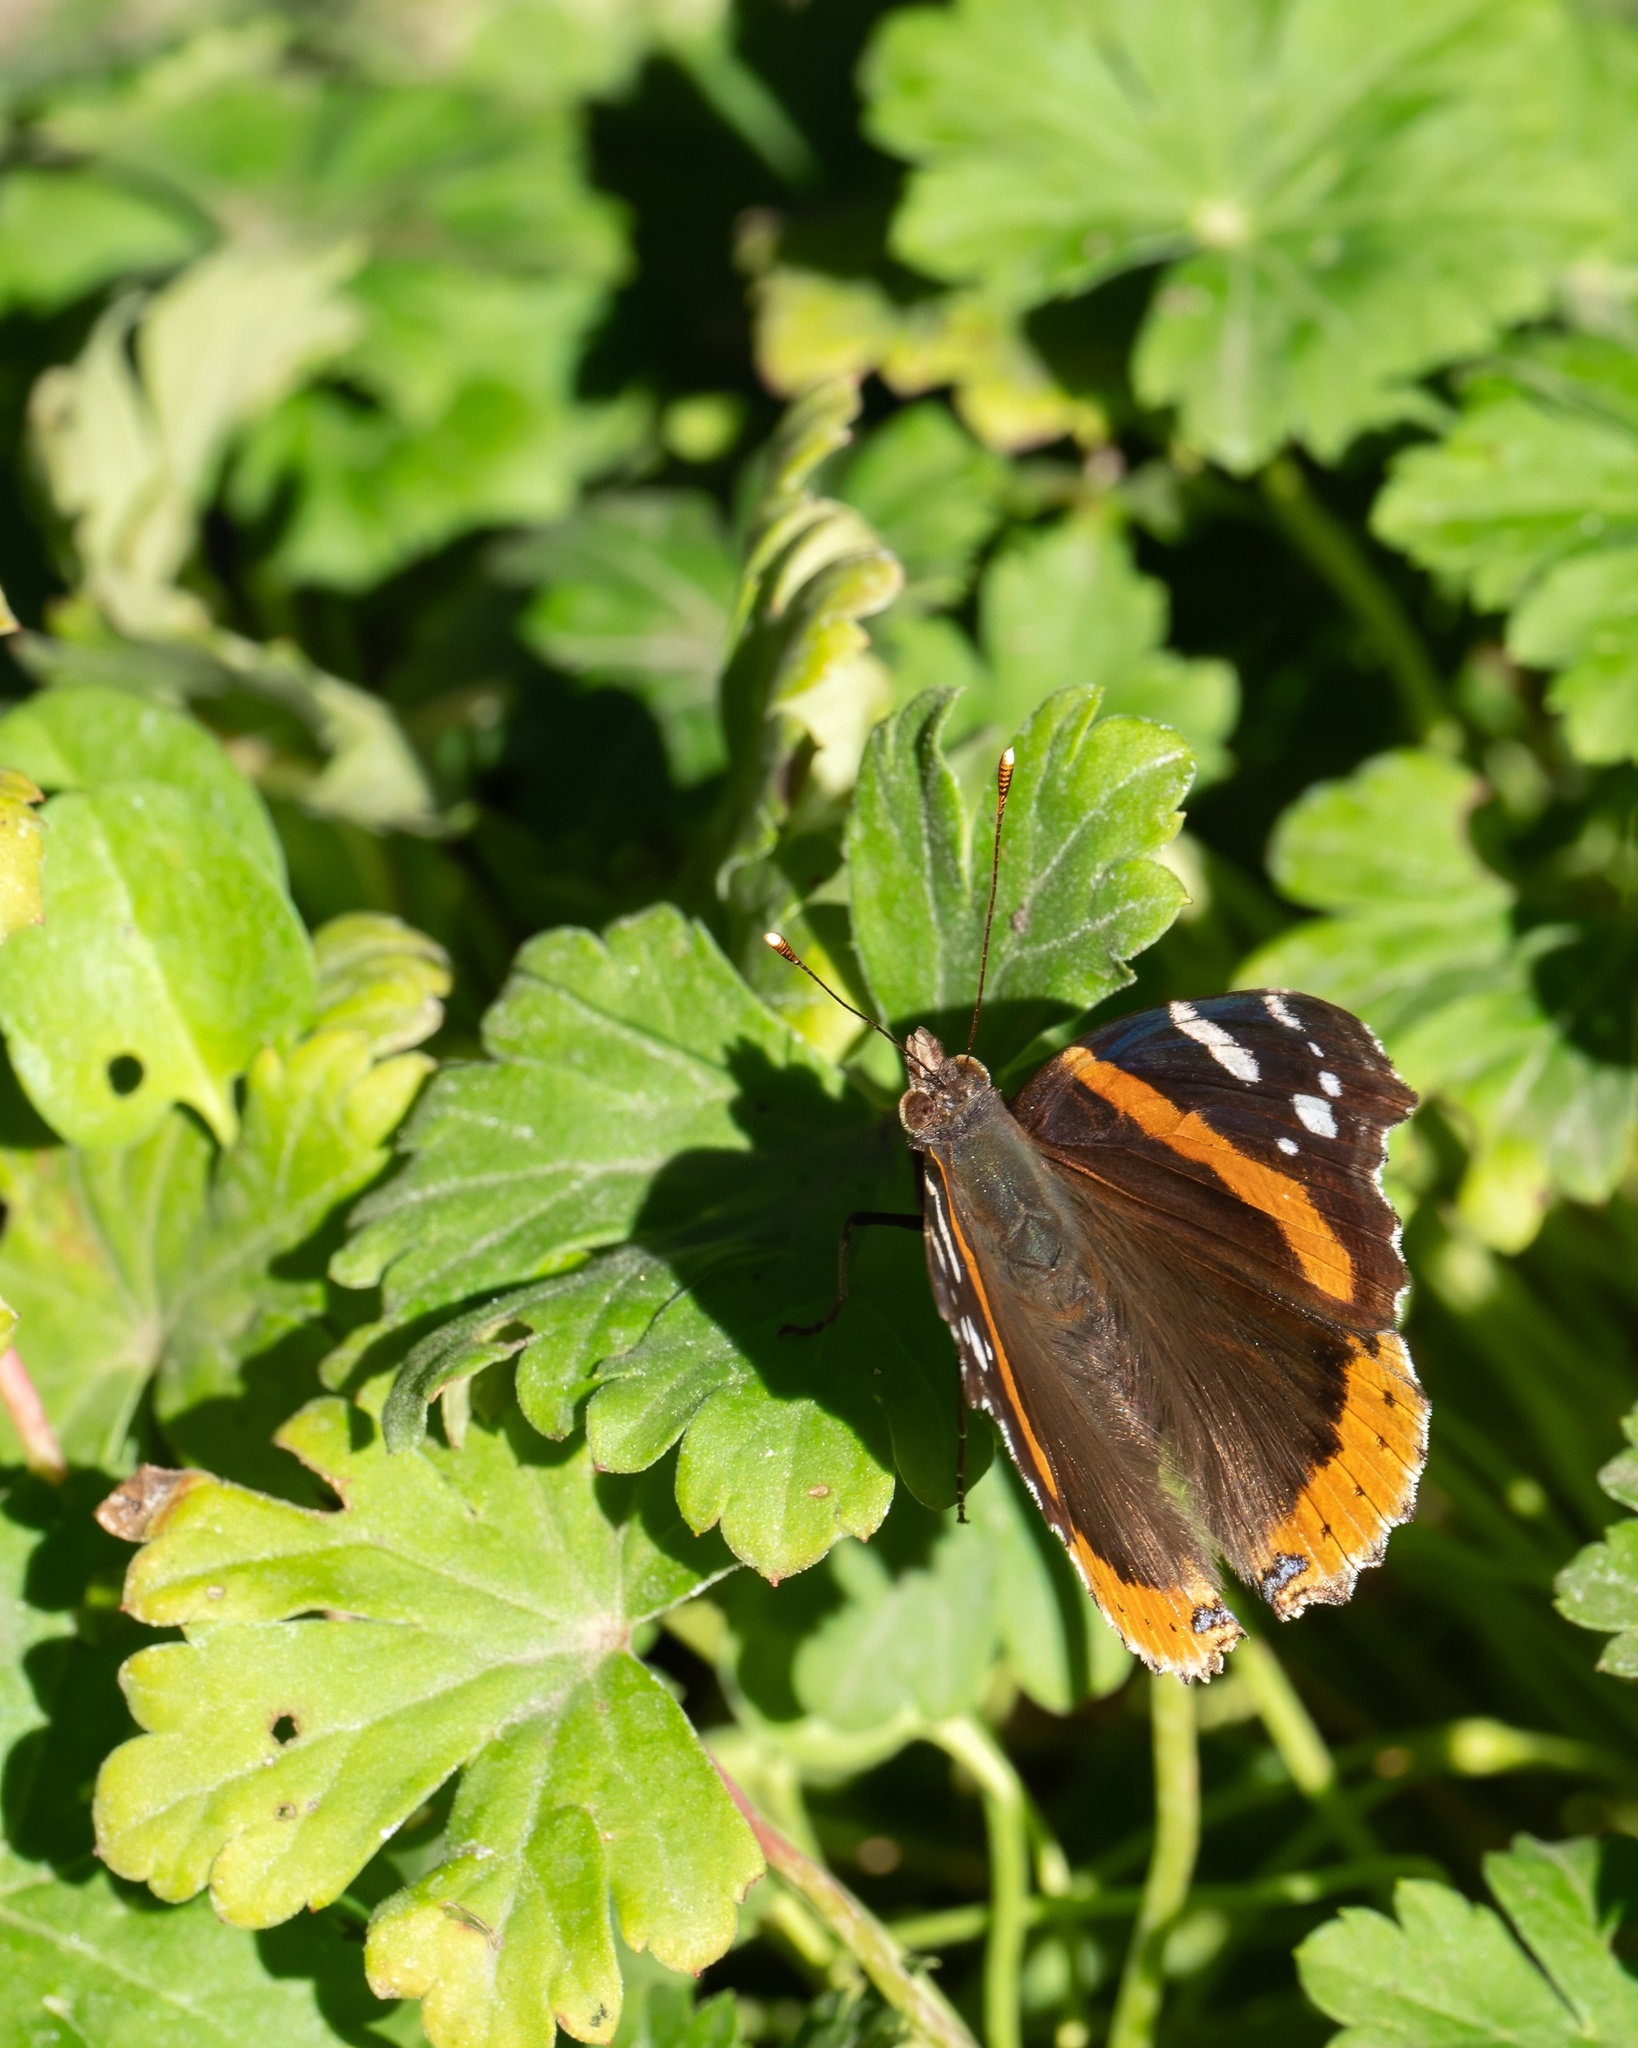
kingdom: Animalia
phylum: Arthropoda
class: Insecta
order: Lepidoptera
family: Nymphalidae
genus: Vanessa
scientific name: Vanessa atalanta
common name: Red admiral
